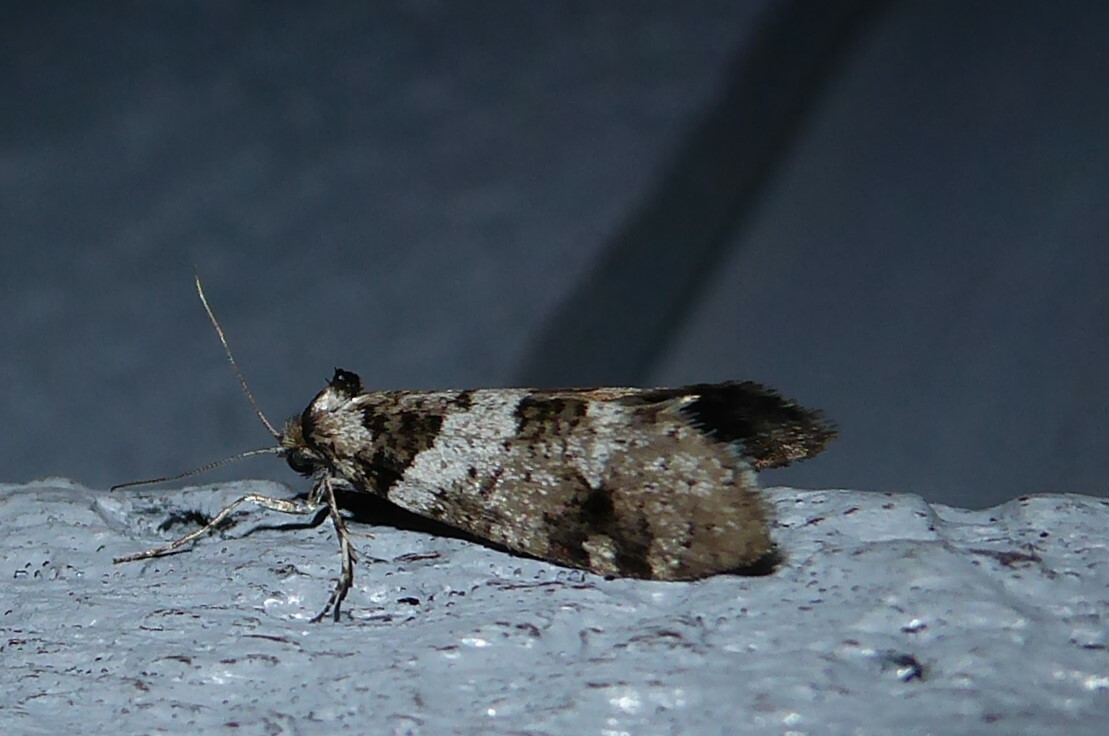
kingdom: Animalia
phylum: Arthropoda
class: Insecta
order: Lepidoptera
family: Psychidae
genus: Lepidoscia
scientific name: Lepidoscia heliochares
